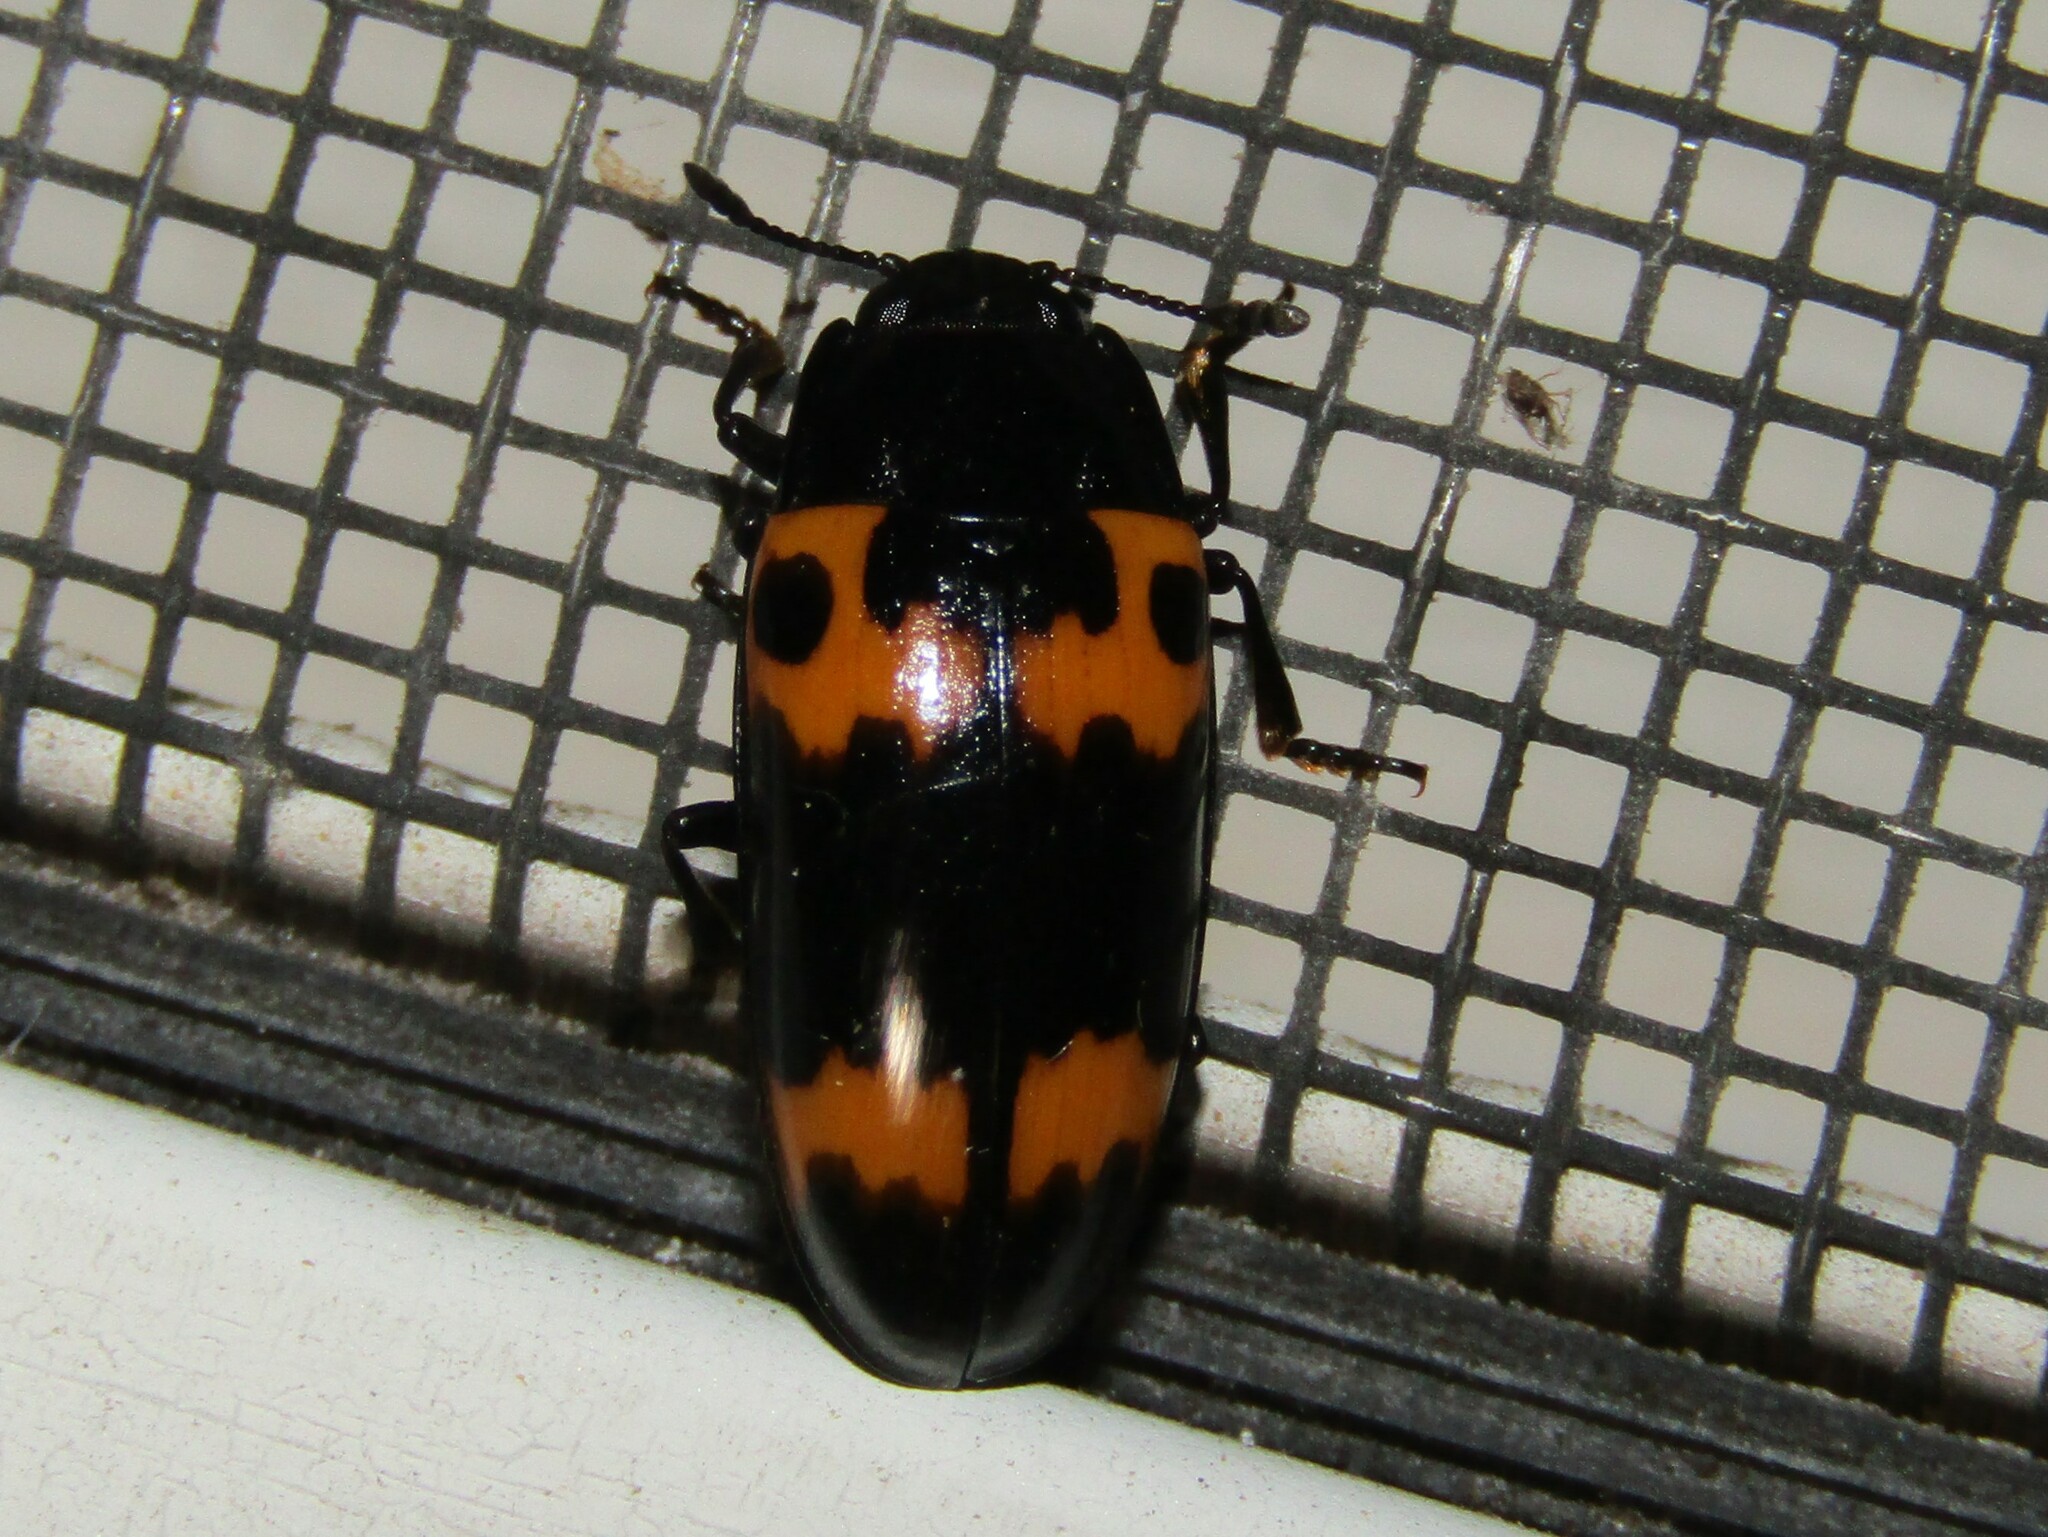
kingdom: Animalia
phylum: Arthropoda
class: Insecta
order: Coleoptera
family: Erotylidae
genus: Megalodacne
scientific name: Megalodacne fasciata
